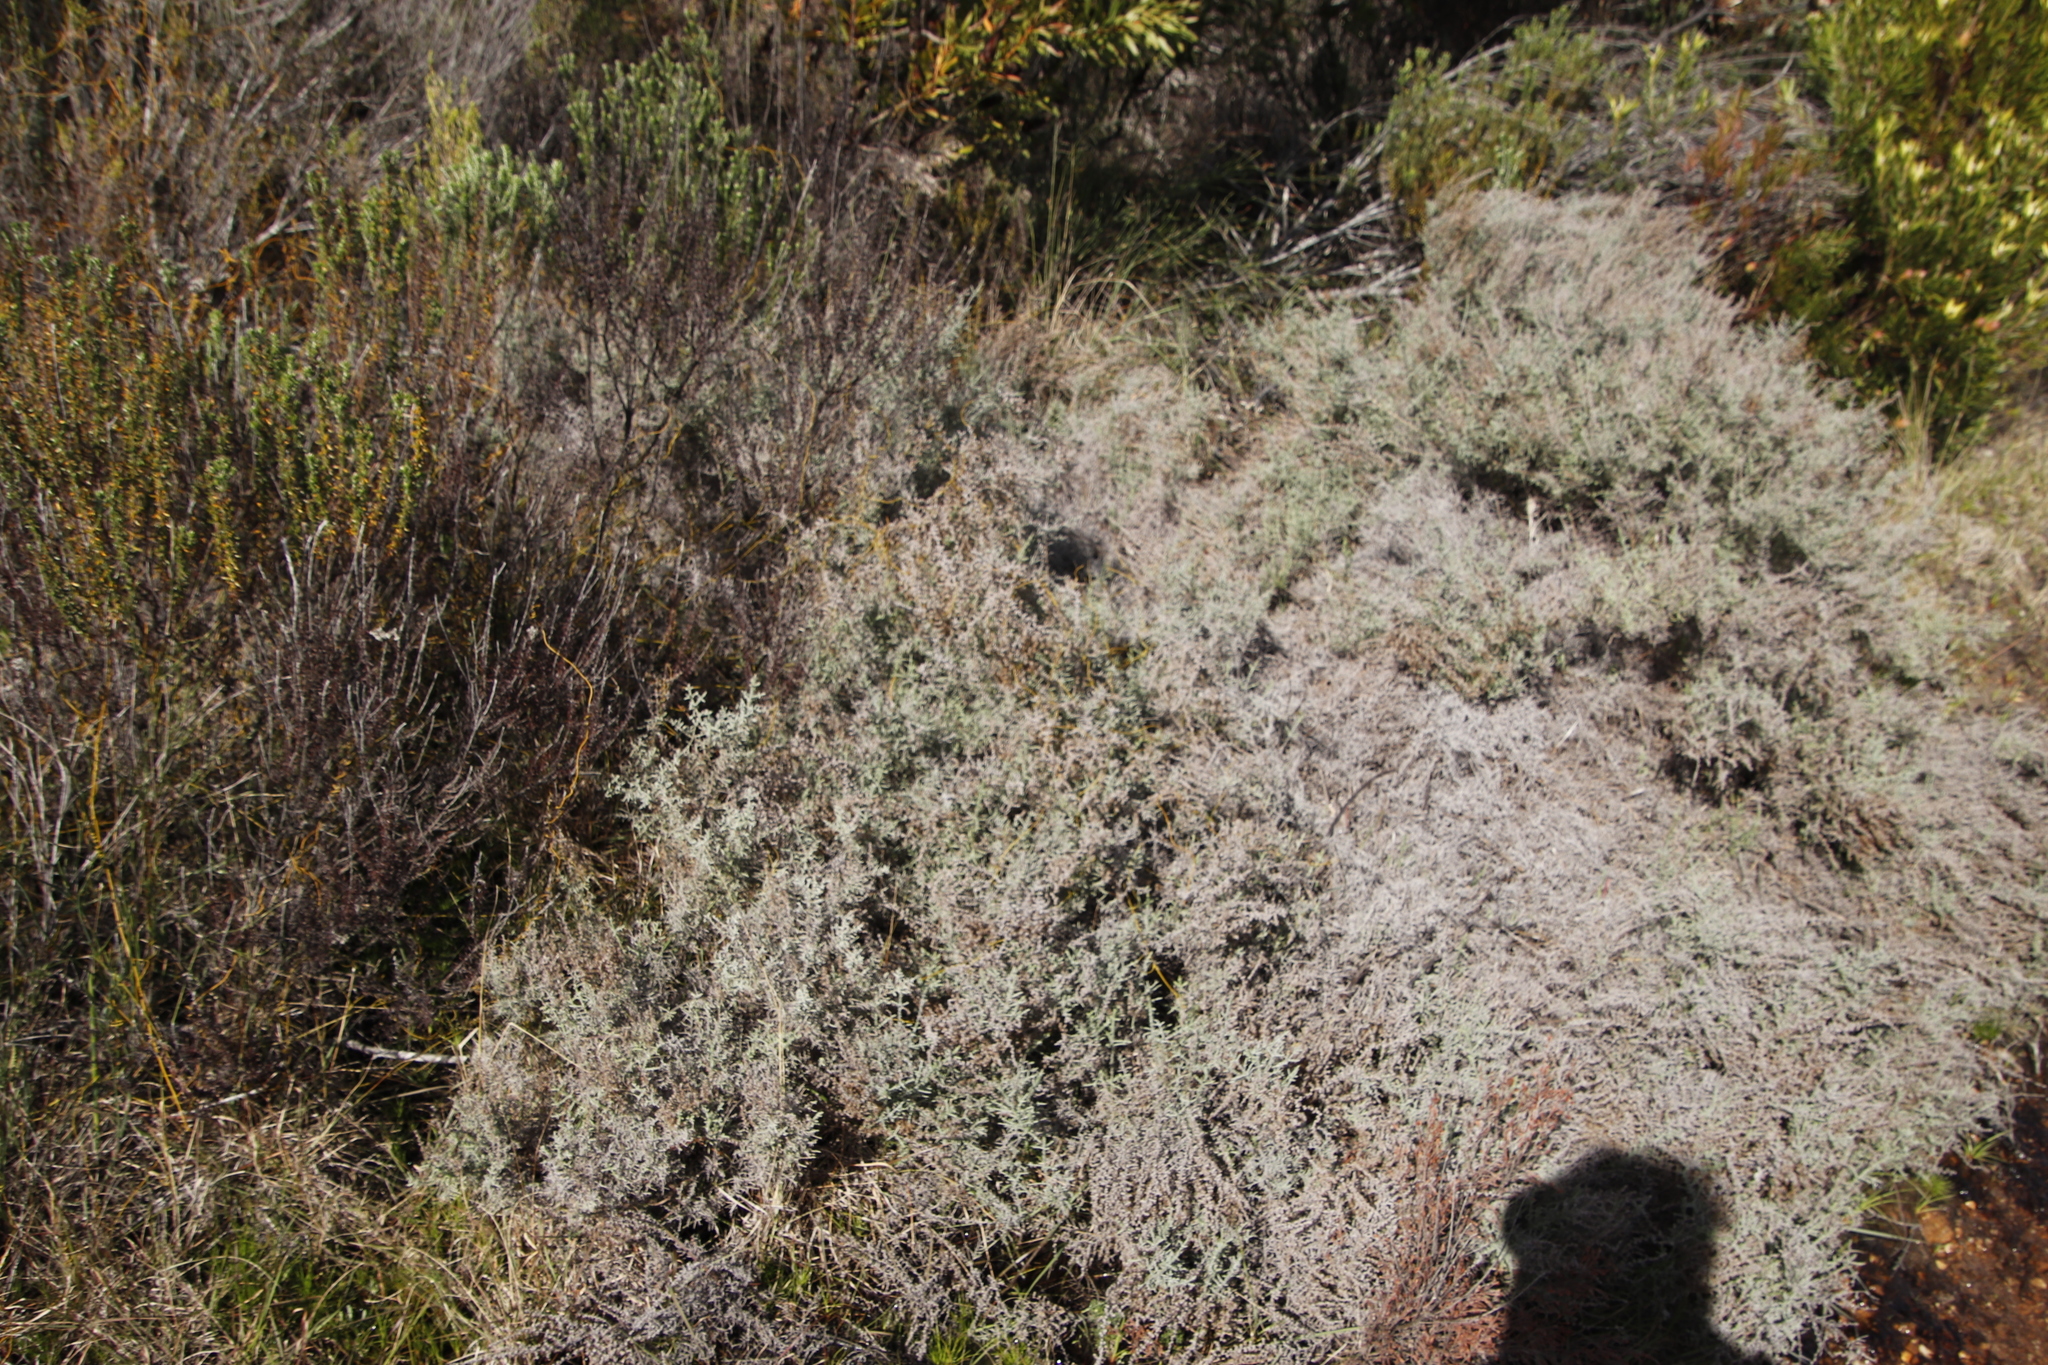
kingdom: Plantae
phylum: Tracheophyta
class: Magnoliopsida
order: Asterales
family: Asteraceae
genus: Seriphium
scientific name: Seriphium plumosum
